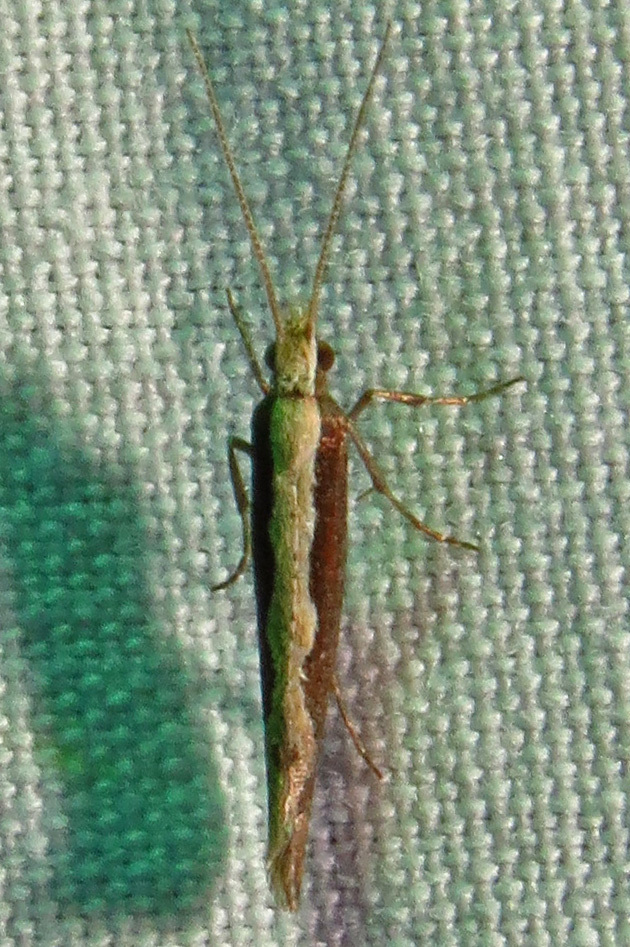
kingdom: Animalia
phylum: Arthropoda
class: Insecta
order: Lepidoptera
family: Plutellidae
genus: Plutella
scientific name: Plutella xylostella
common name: Diamond-back moth
